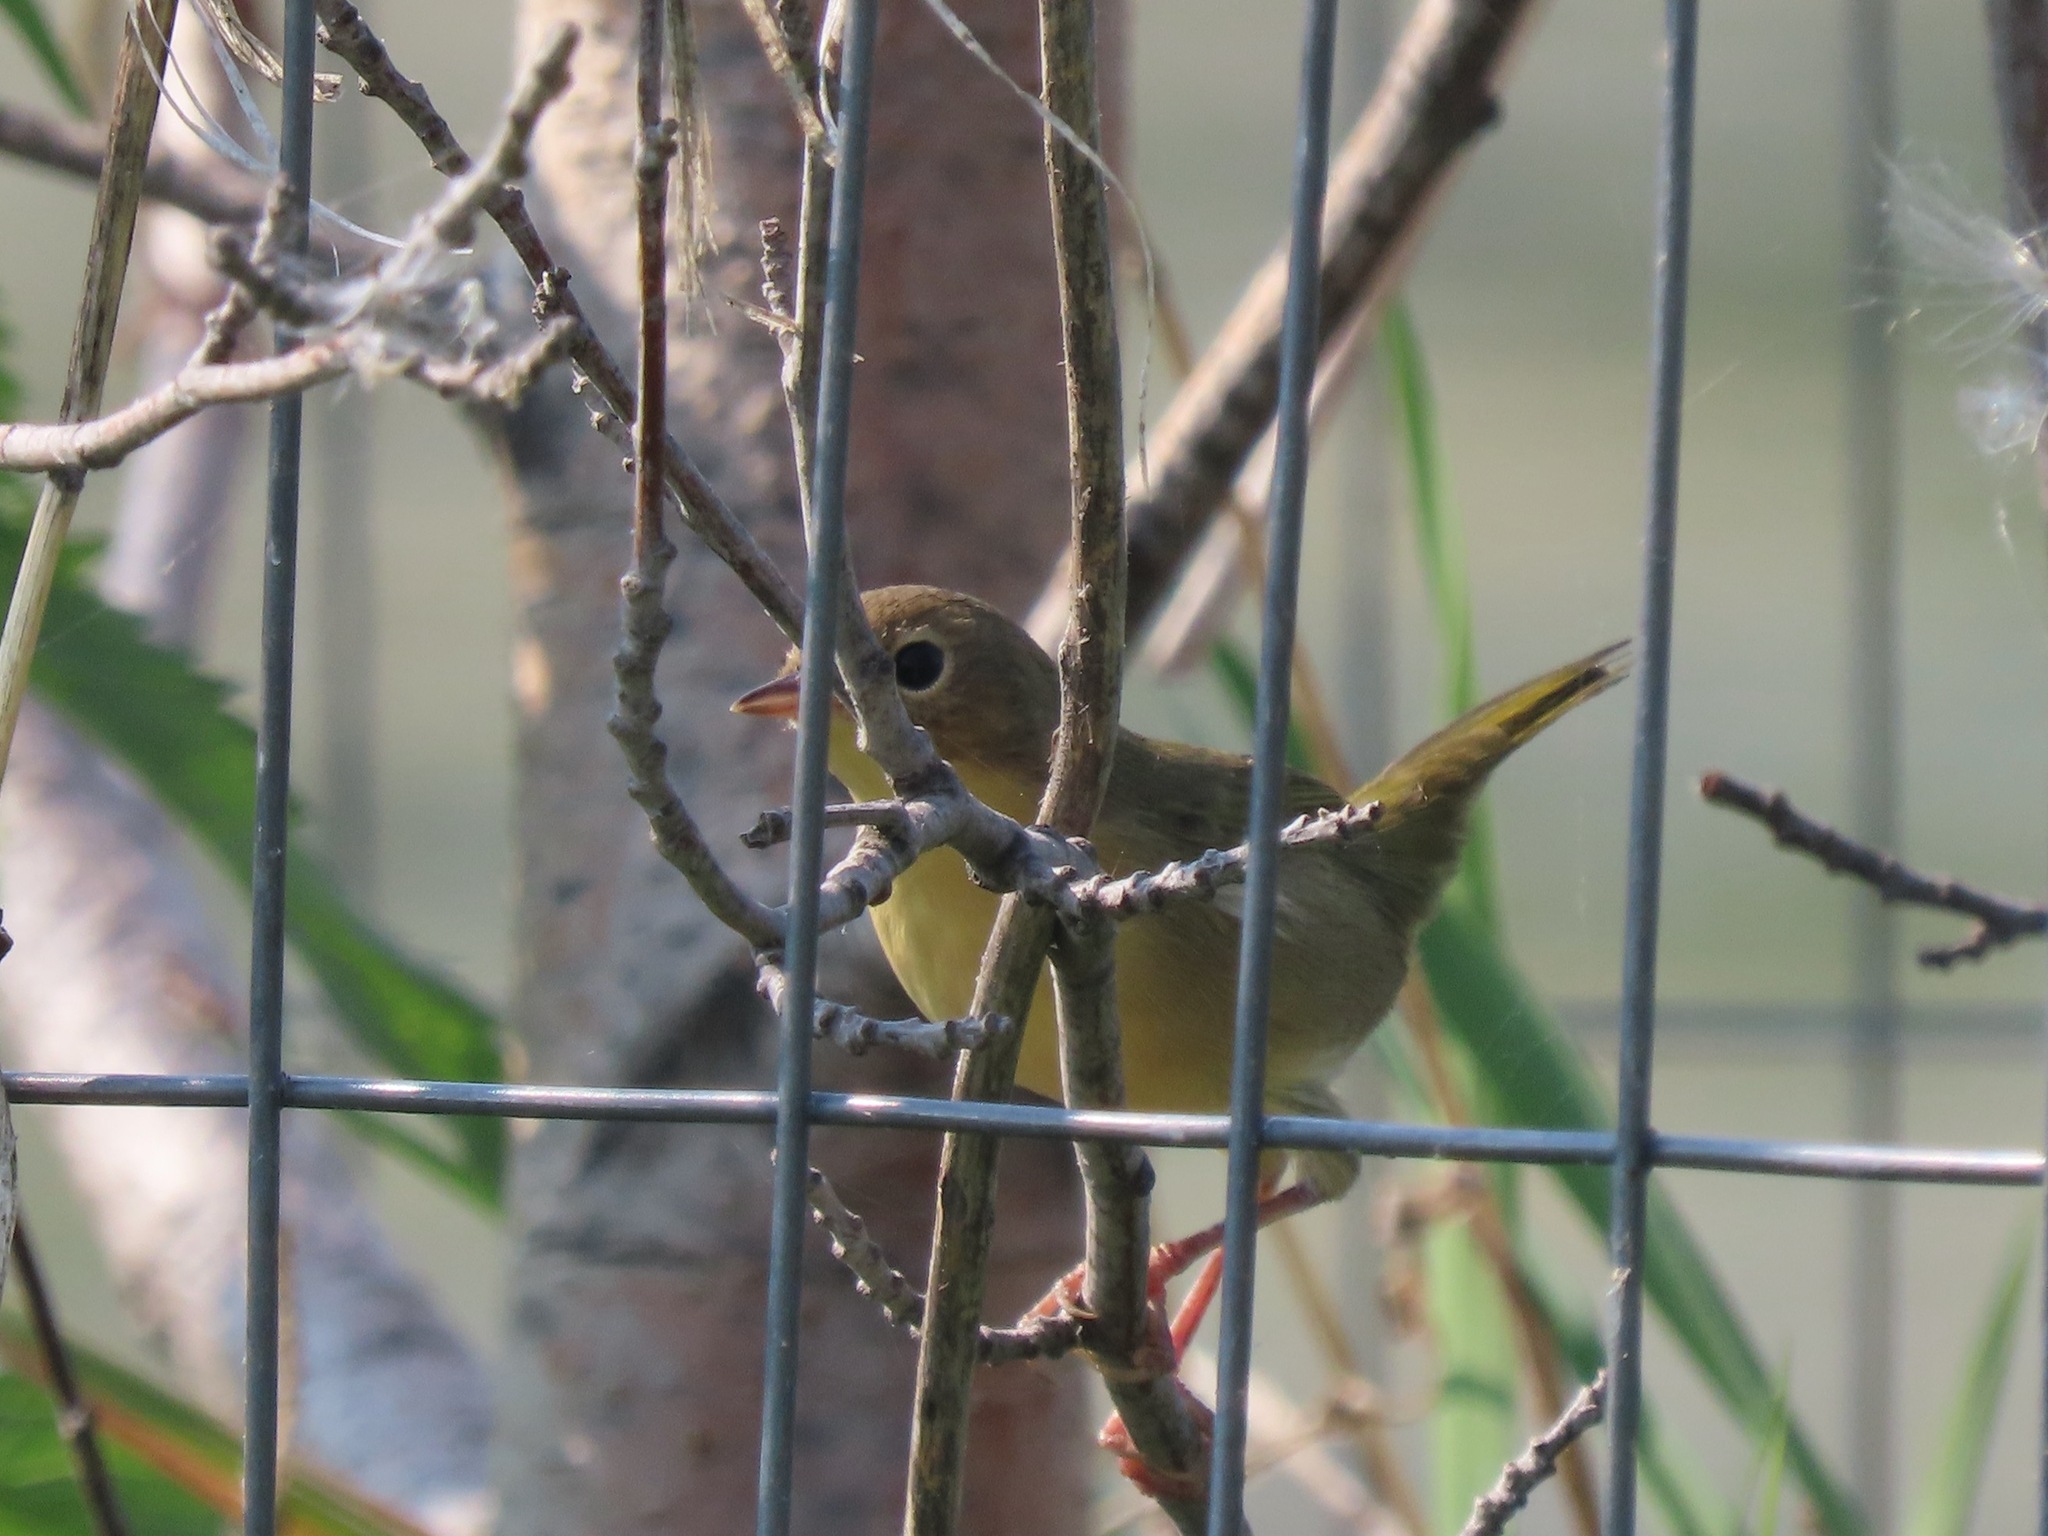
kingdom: Animalia
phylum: Chordata
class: Aves
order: Passeriformes
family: Parulidae
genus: Geothlypis
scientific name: Geothlypis trichas
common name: Common yellowthroat
